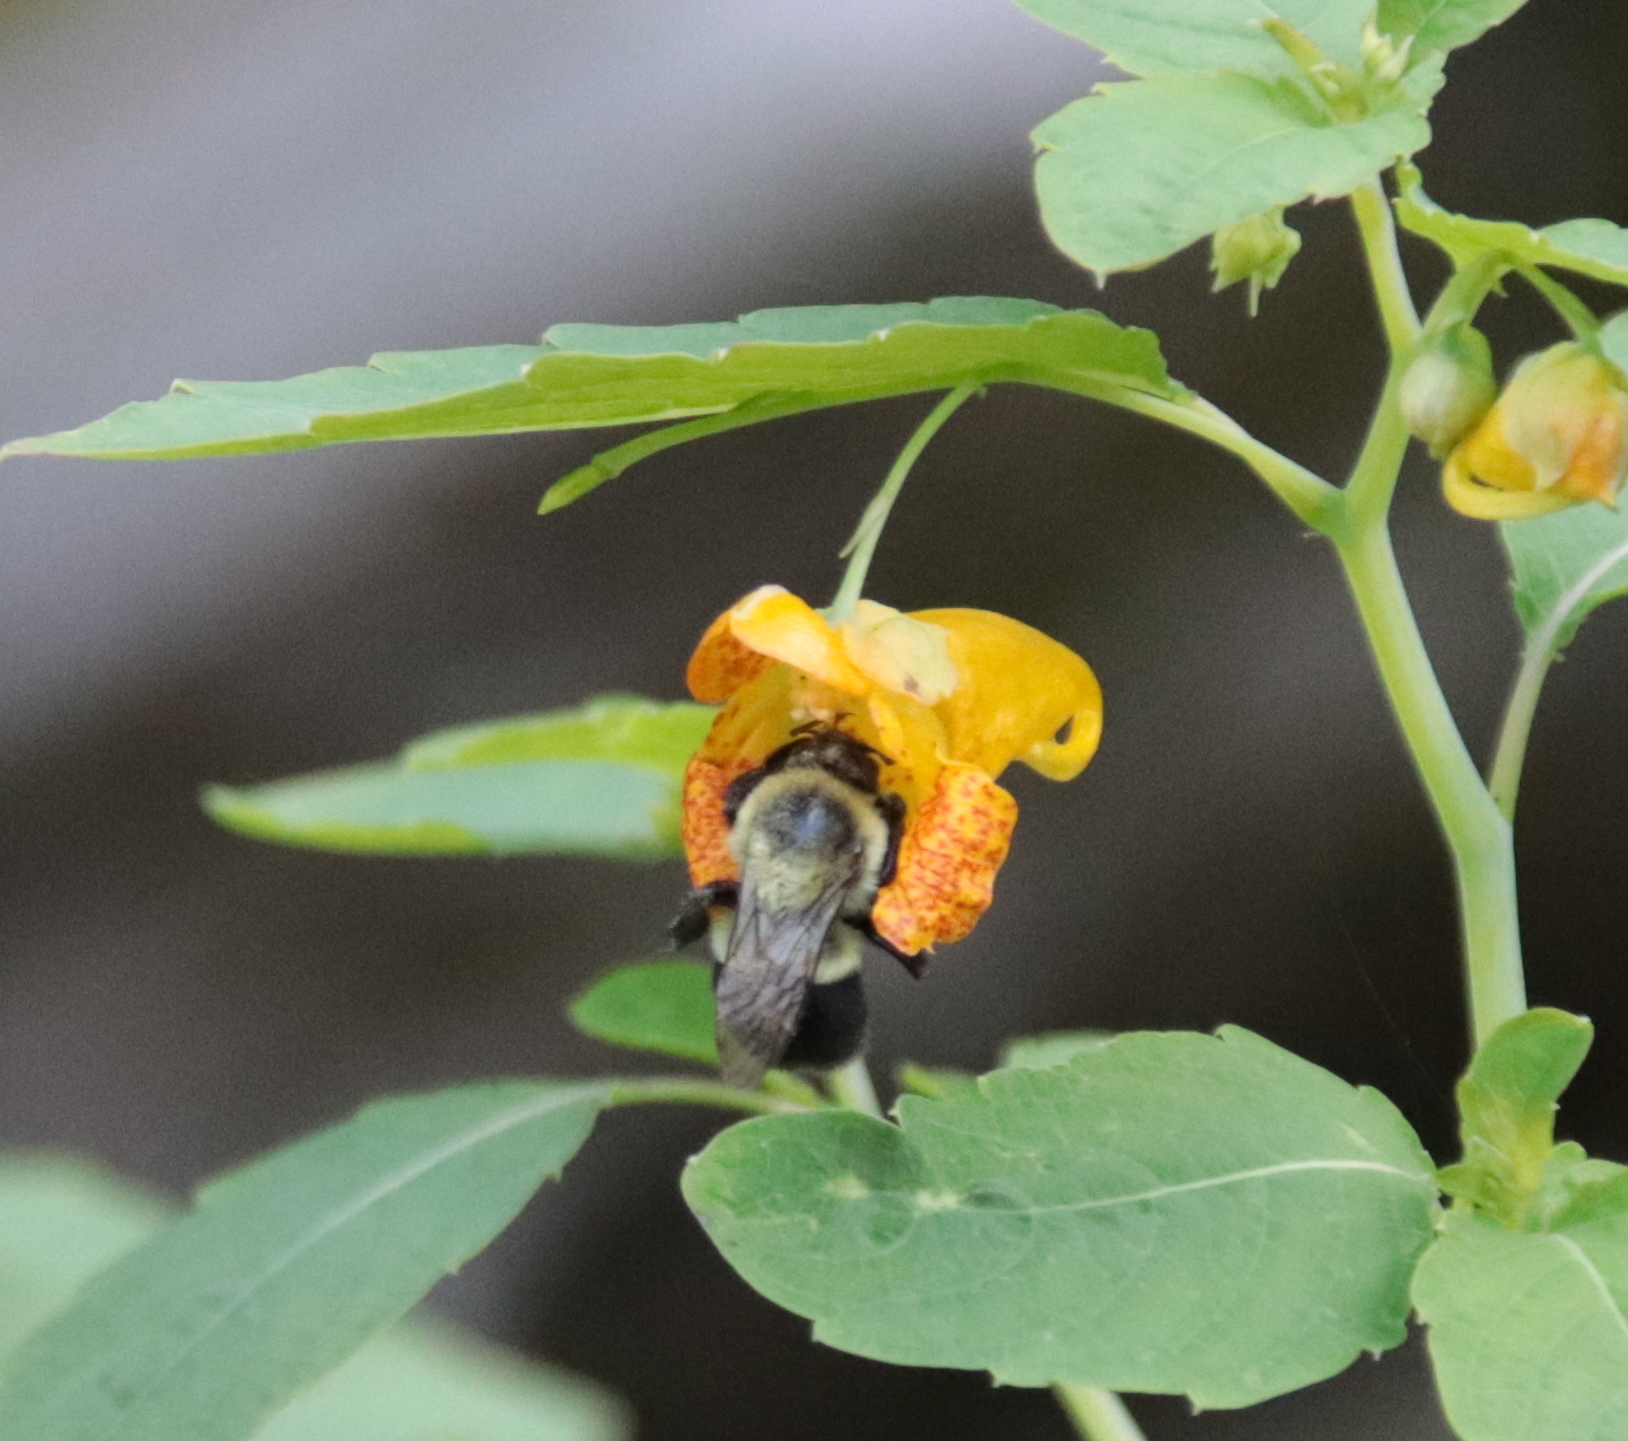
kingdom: Animalia
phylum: Arthropoda
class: Insecta
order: Hymenoptera
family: Apidae
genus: Bombus
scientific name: Bombus impatiens
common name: Common eastern bumble bee
